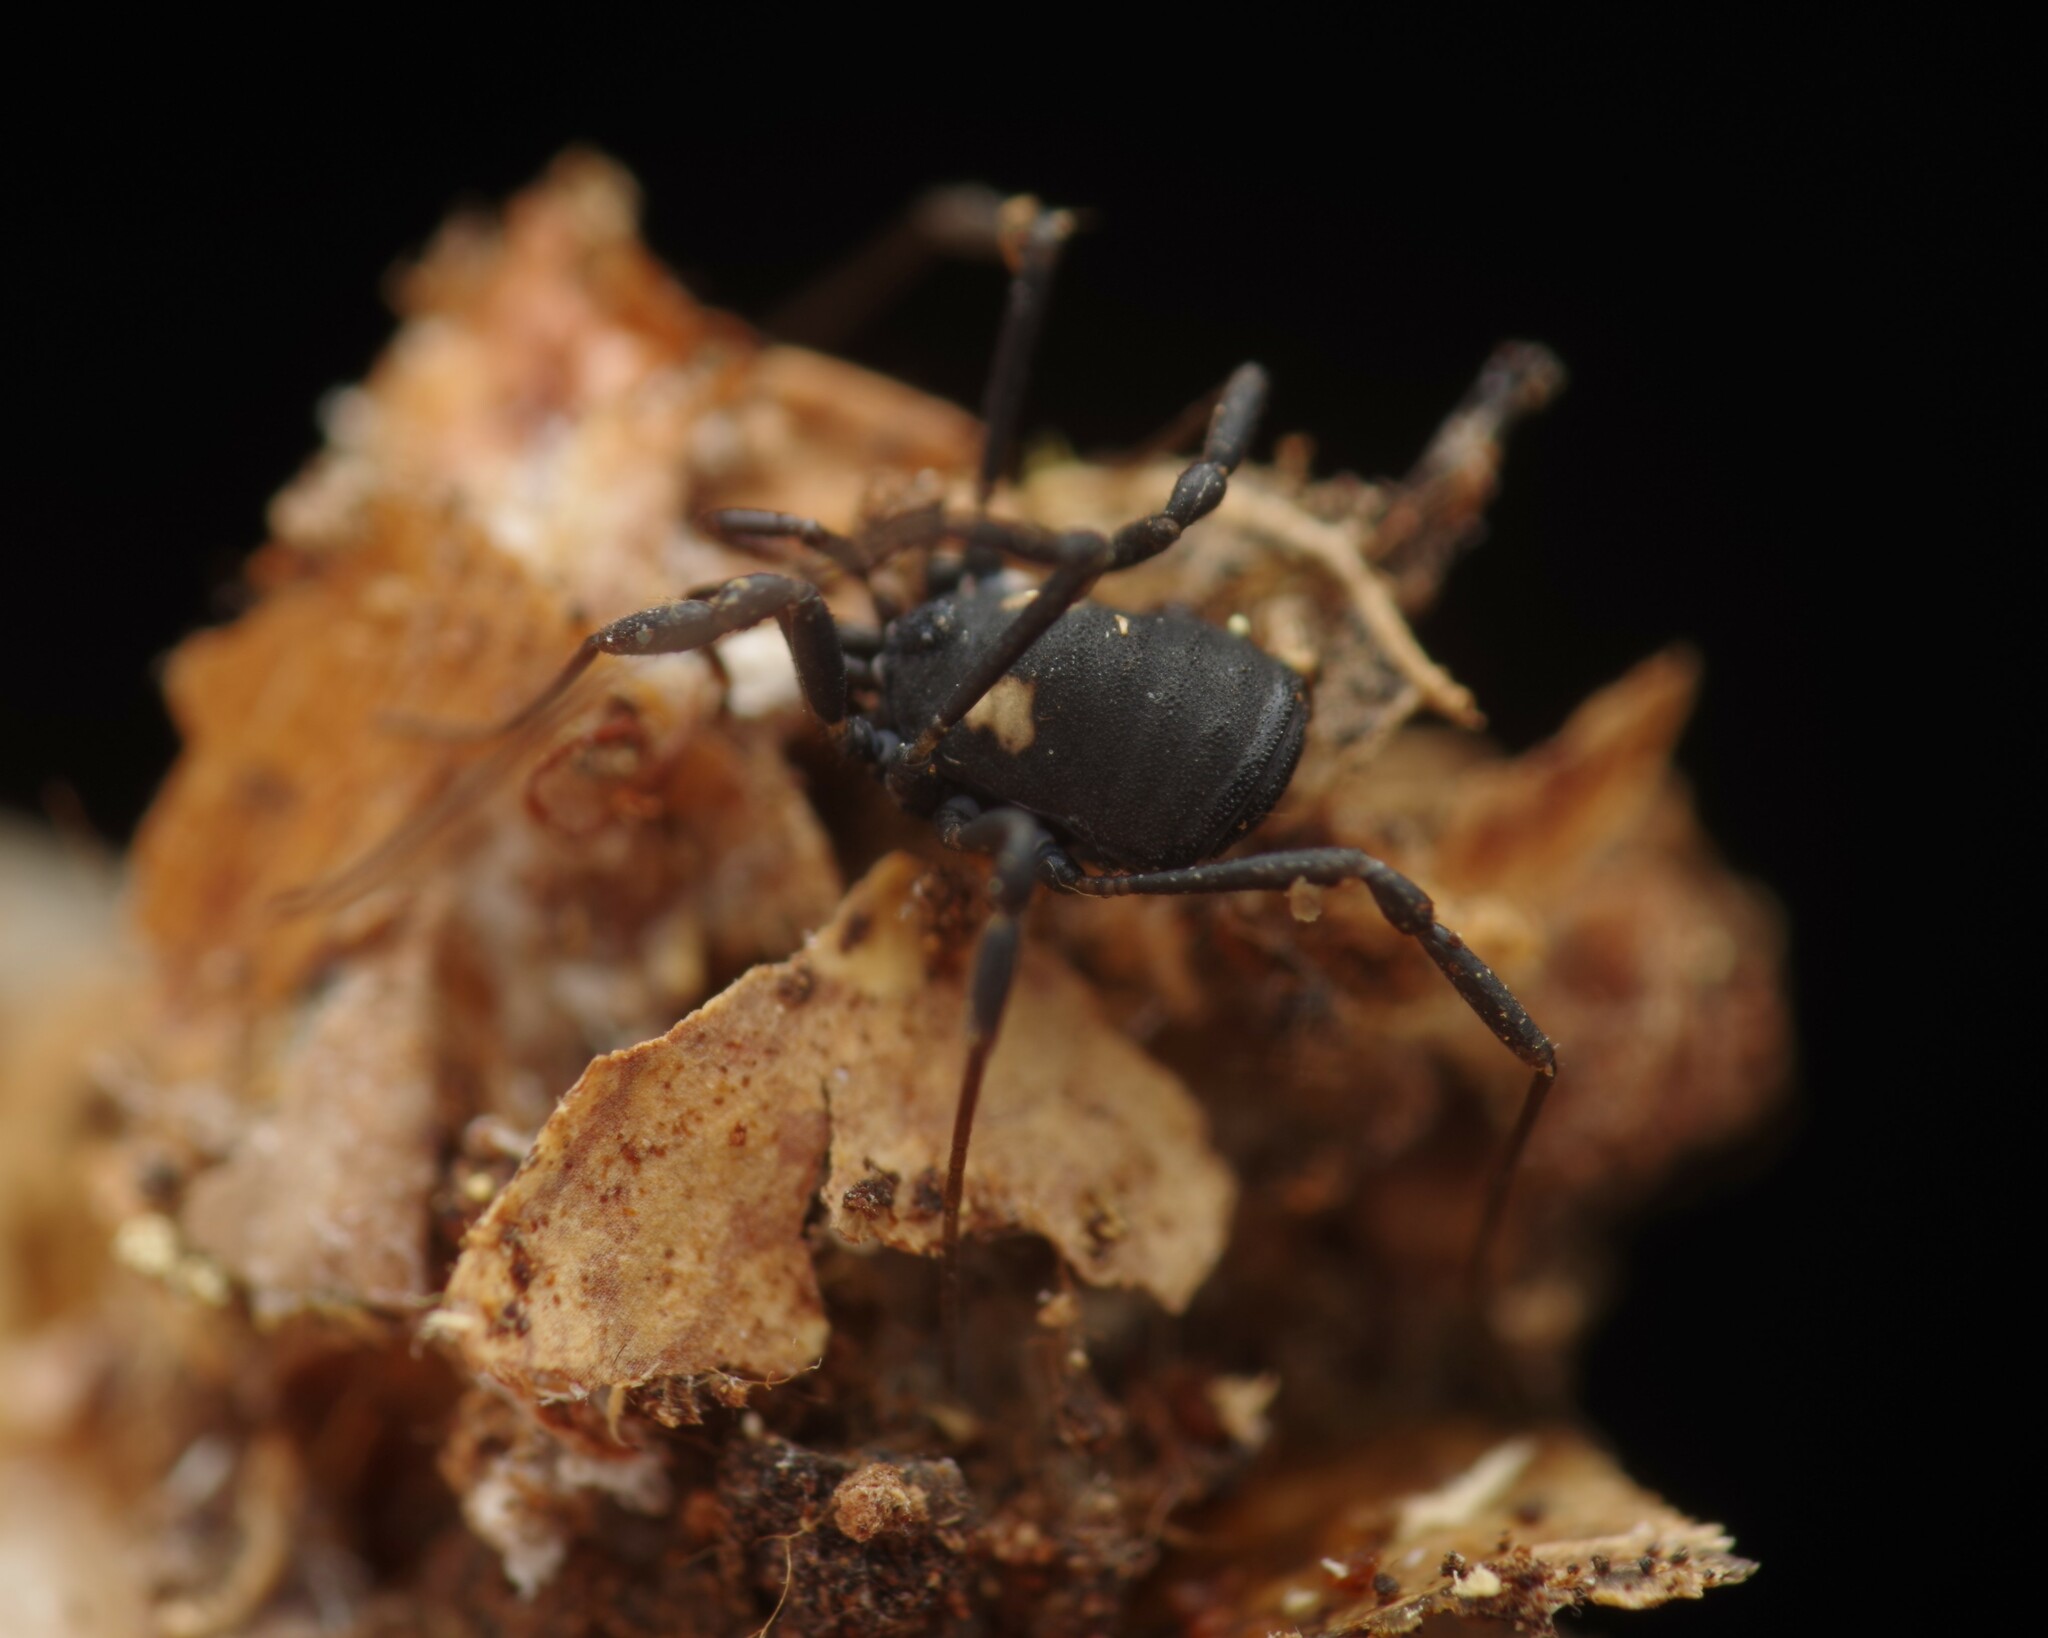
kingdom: Animalia
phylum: Arthropoda
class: Arachnida
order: Opiliones
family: Nemastomatidae
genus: Nemastoma
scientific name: Nemastoma bimaculatum
